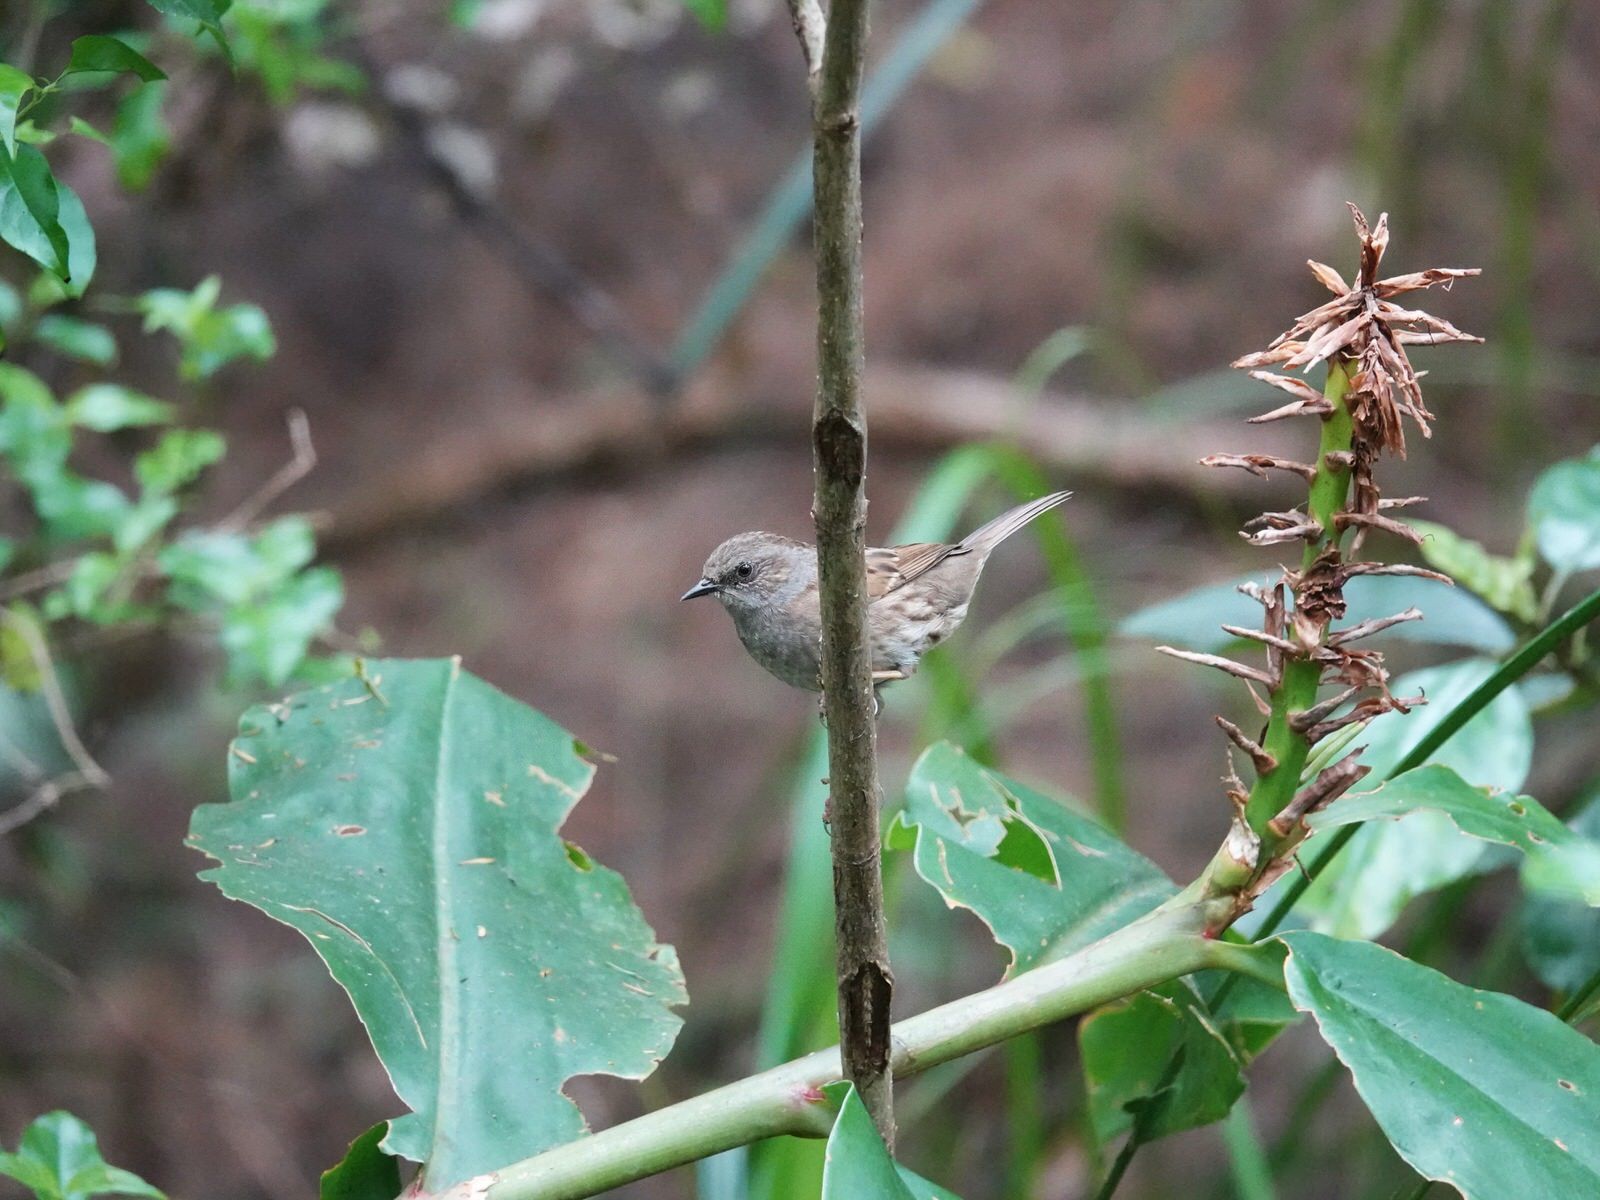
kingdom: Animalia
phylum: Chordata
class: Aves
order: Passeriformes
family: Prunellidae
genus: Prunella
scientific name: Prunella modularis
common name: Dunnock
